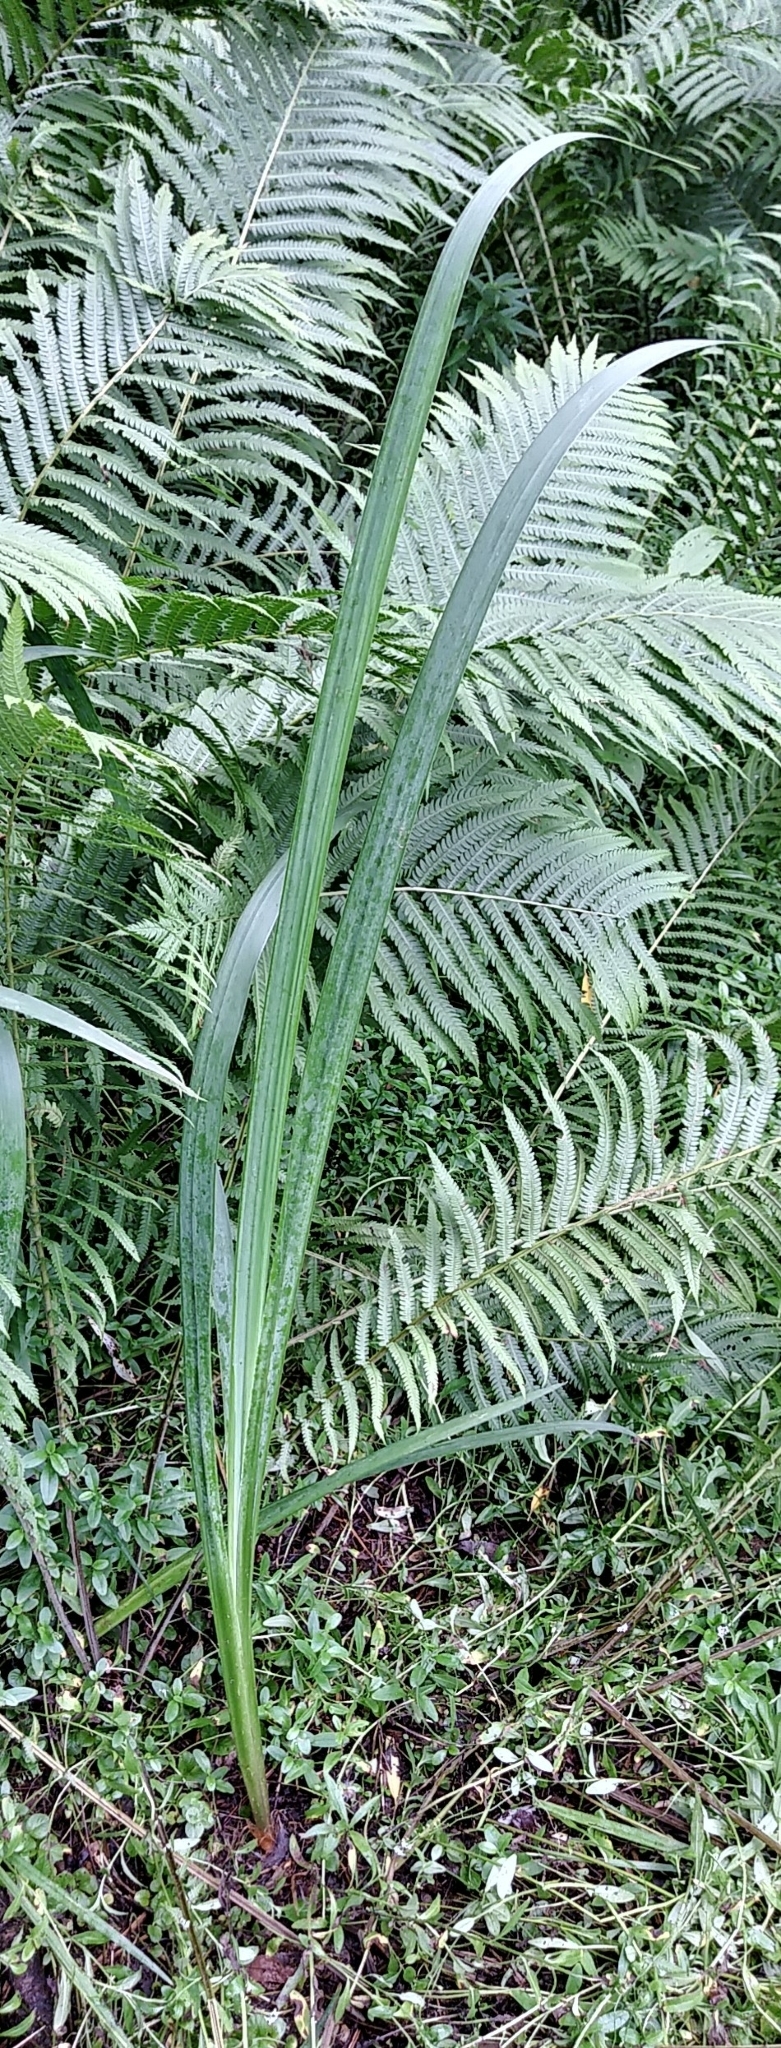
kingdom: Plantae
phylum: Tracheophyta
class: Liliopsida
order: Asparagales
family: Iridaceae
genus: Iris
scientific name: Iris pseudacorus
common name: Yellow flag
